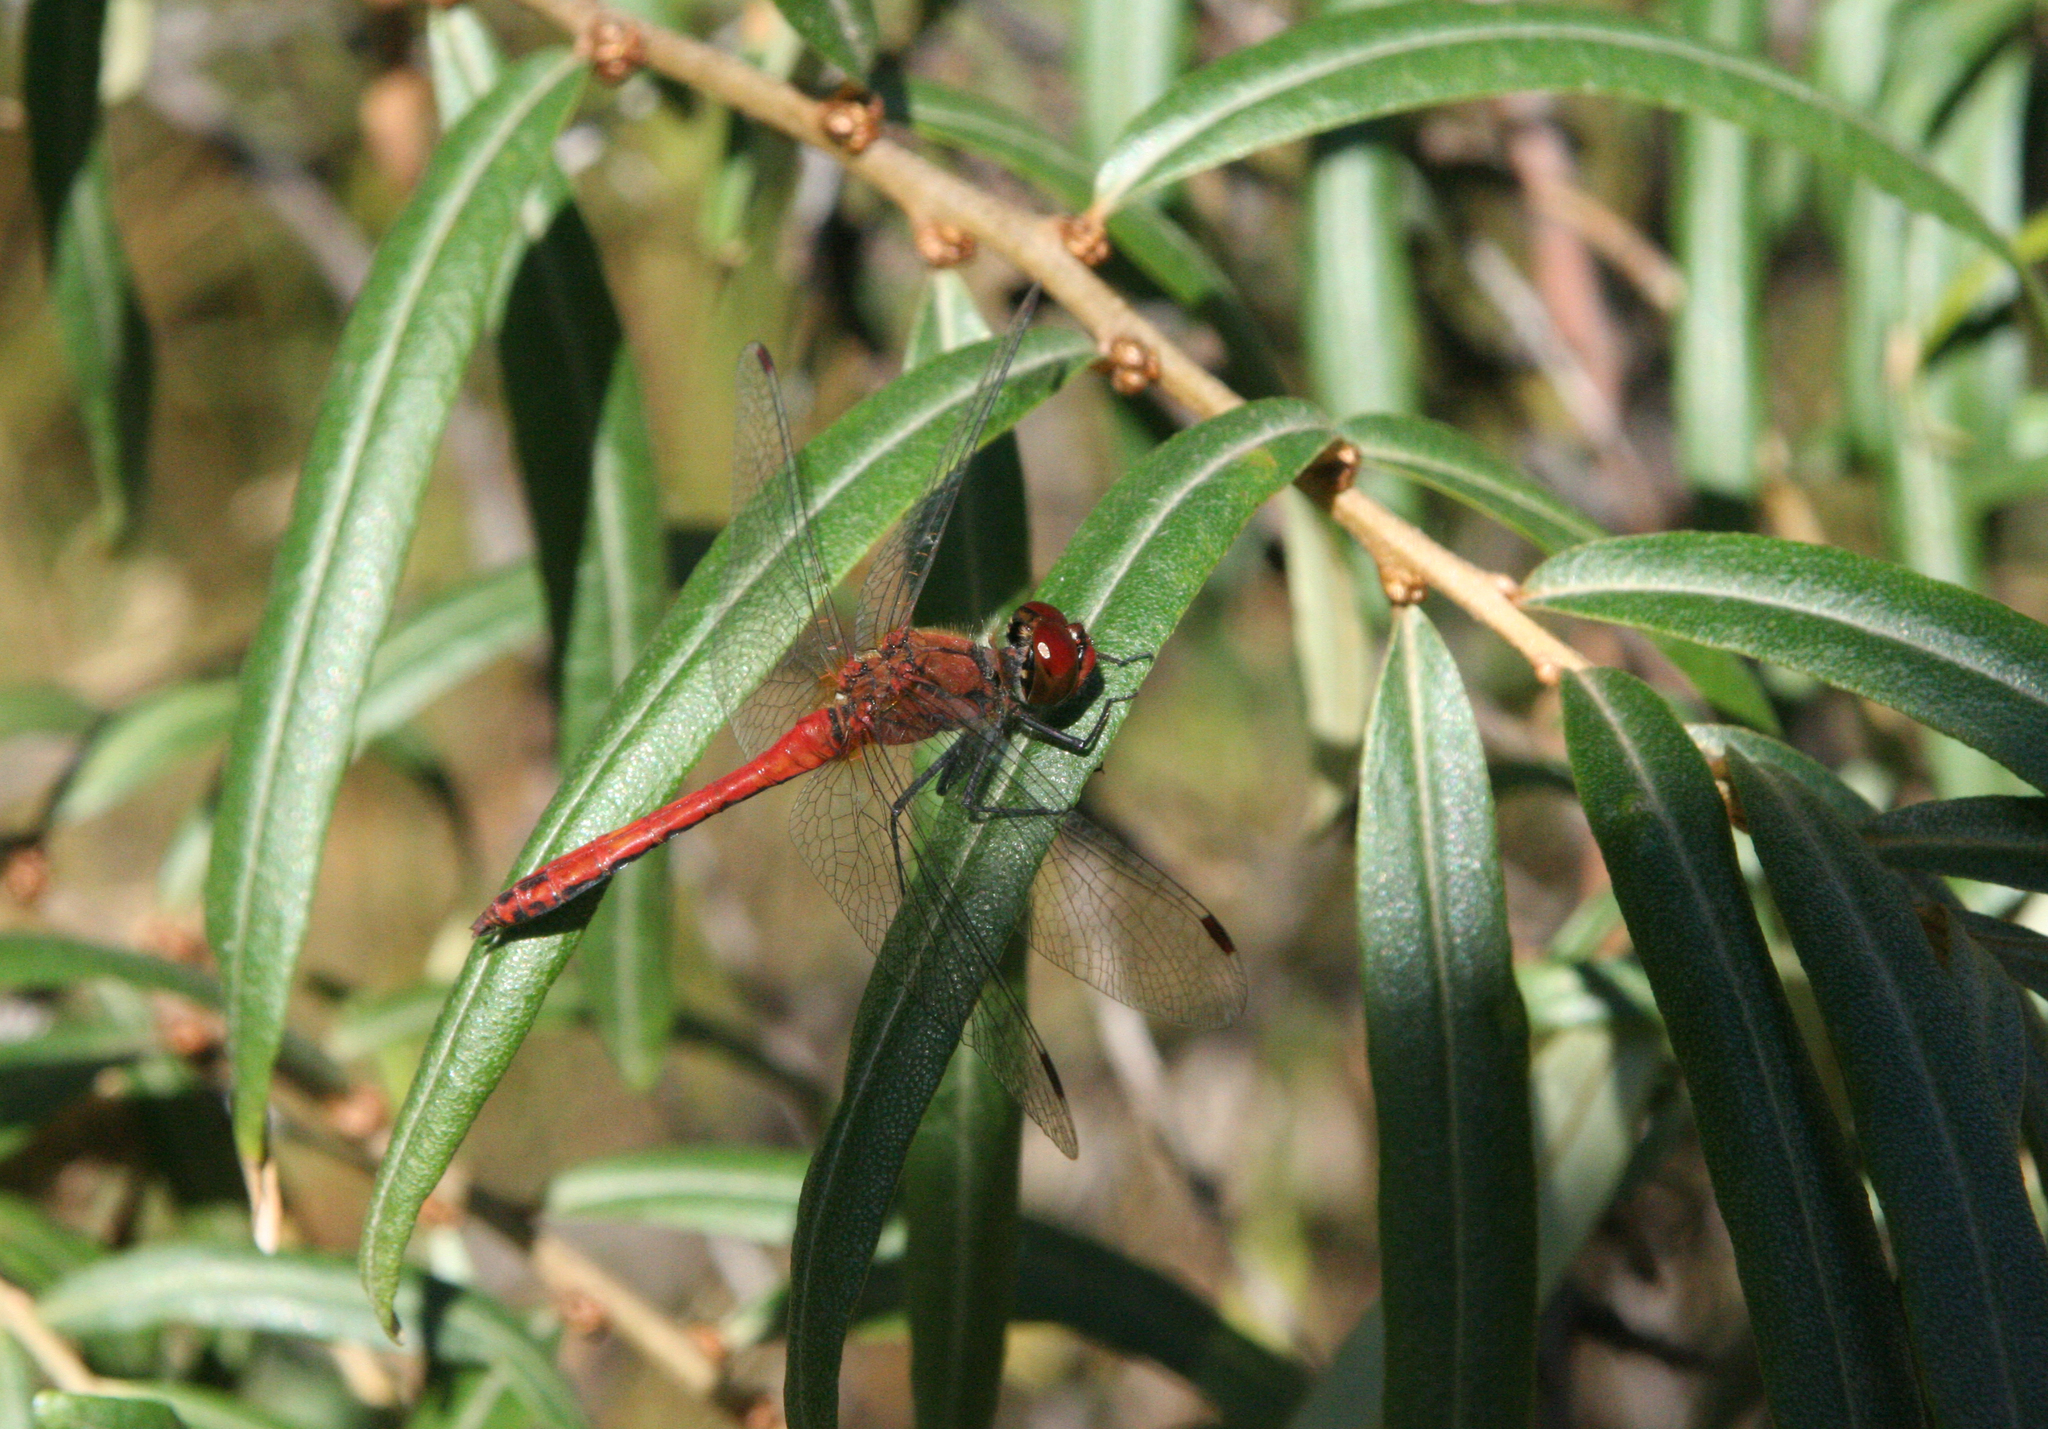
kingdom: Plantae
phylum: Tracheophyta
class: Magnoliopsida
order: Rosales
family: Elaeagnaceae
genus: Hippophae
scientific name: Hippophae rhamnoides
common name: Sea-buckthorn
